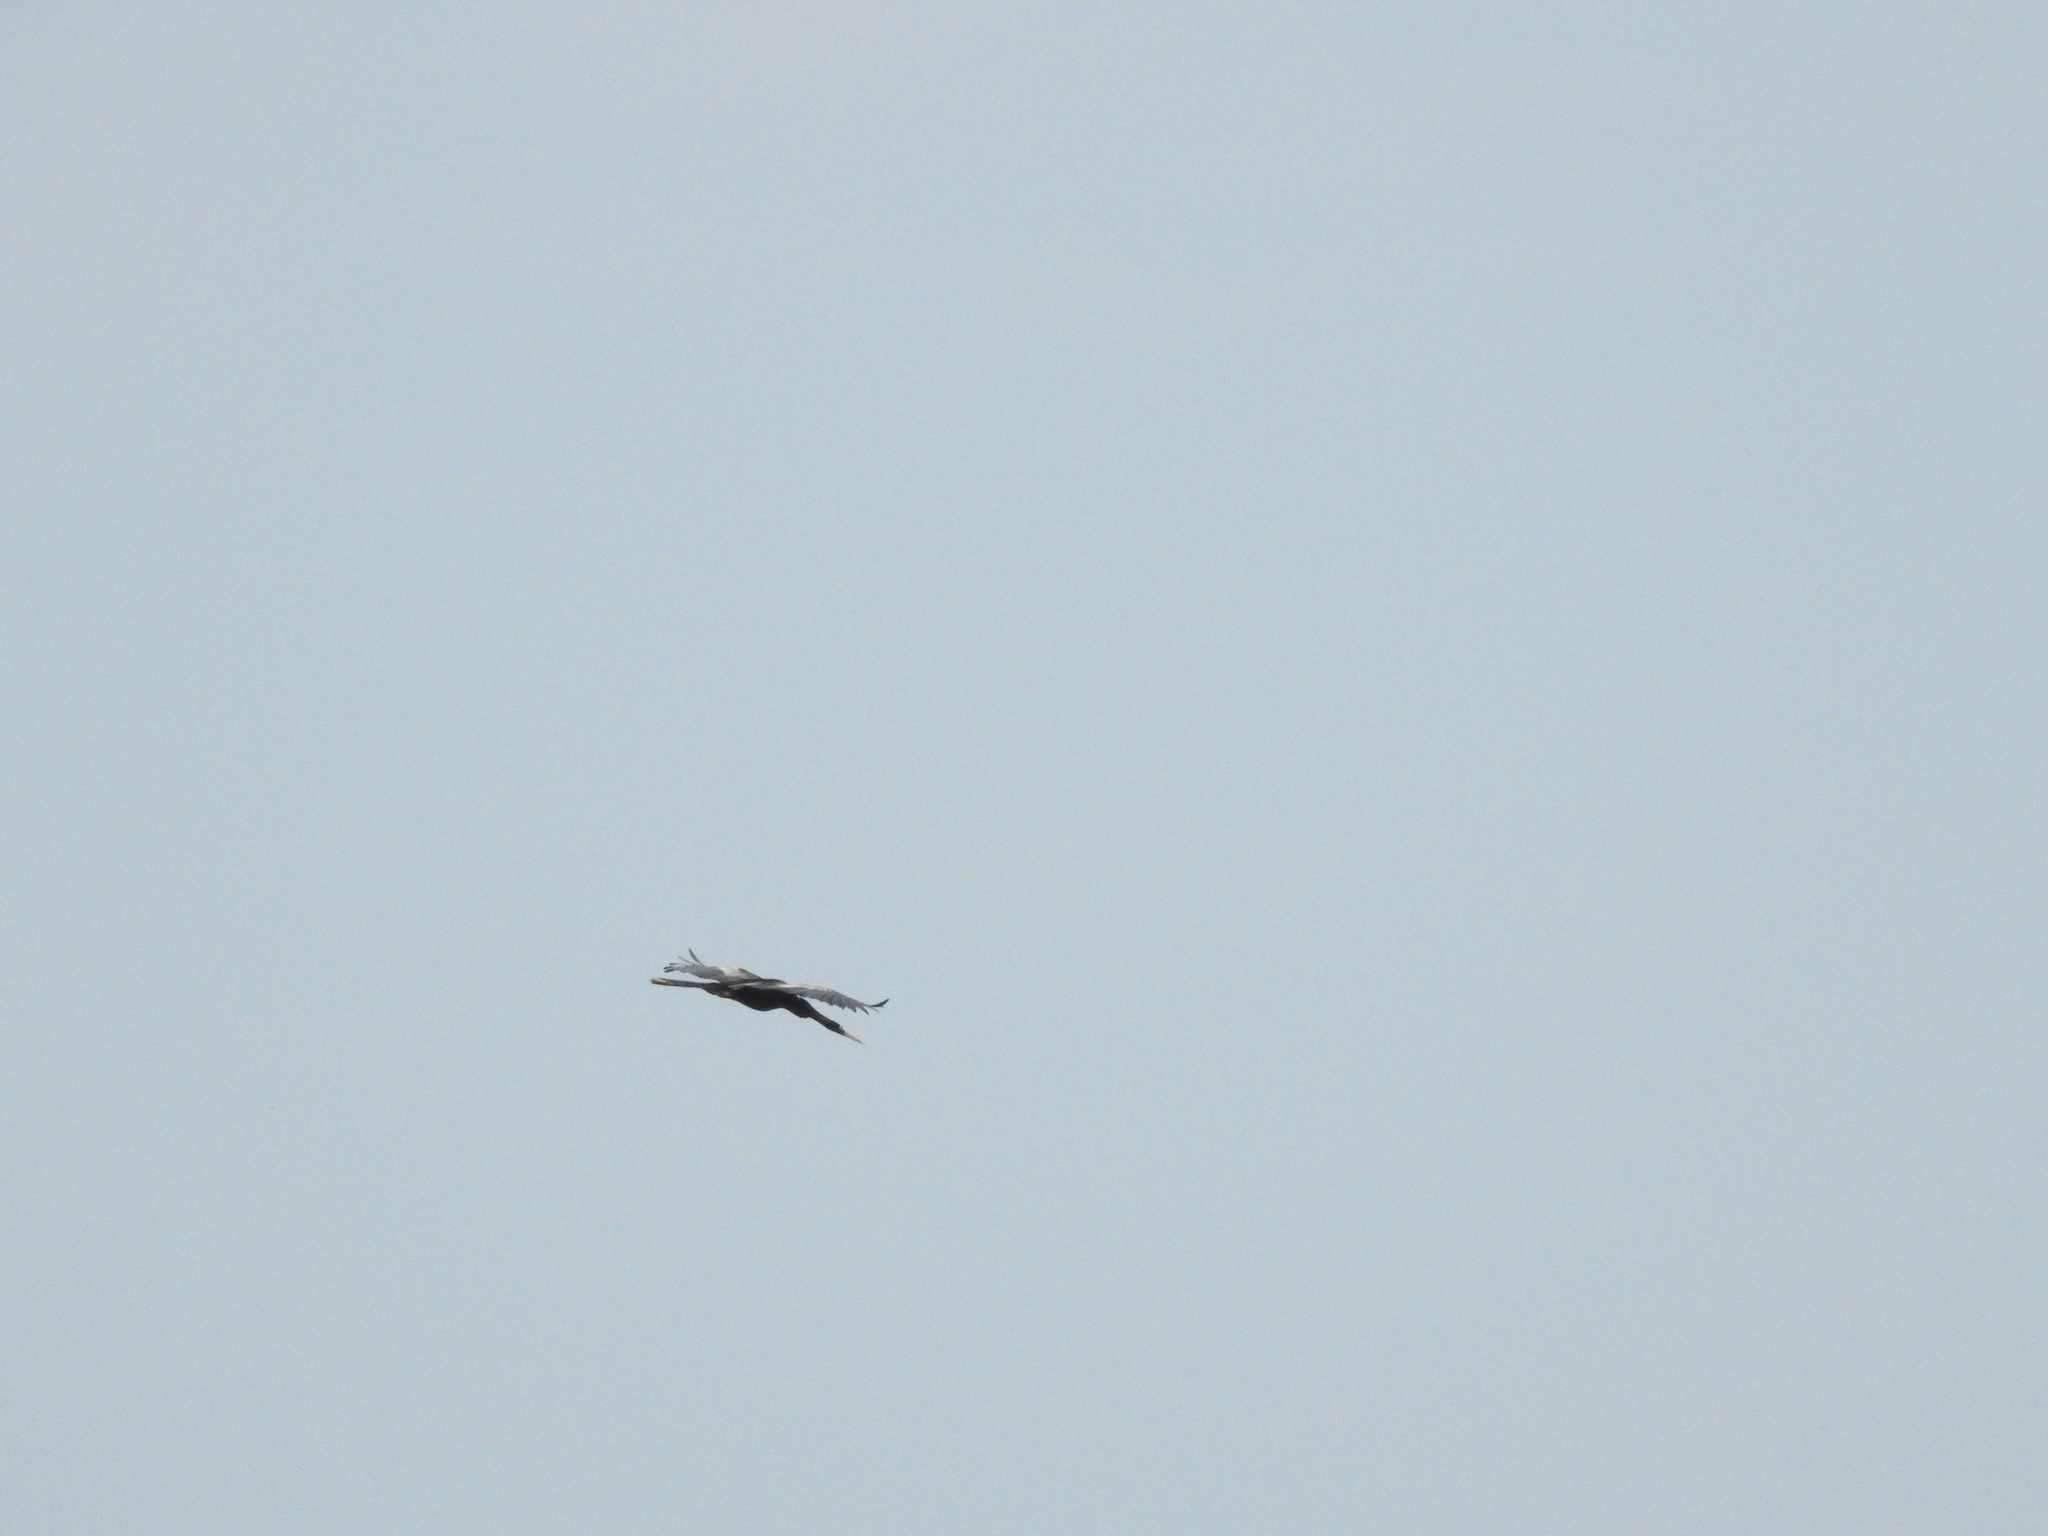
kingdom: Animalia
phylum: Chordata
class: Aves
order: Suliformes
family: Anhingidae
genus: Anhinga
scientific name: Anhinga anhinga
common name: Anhinga
